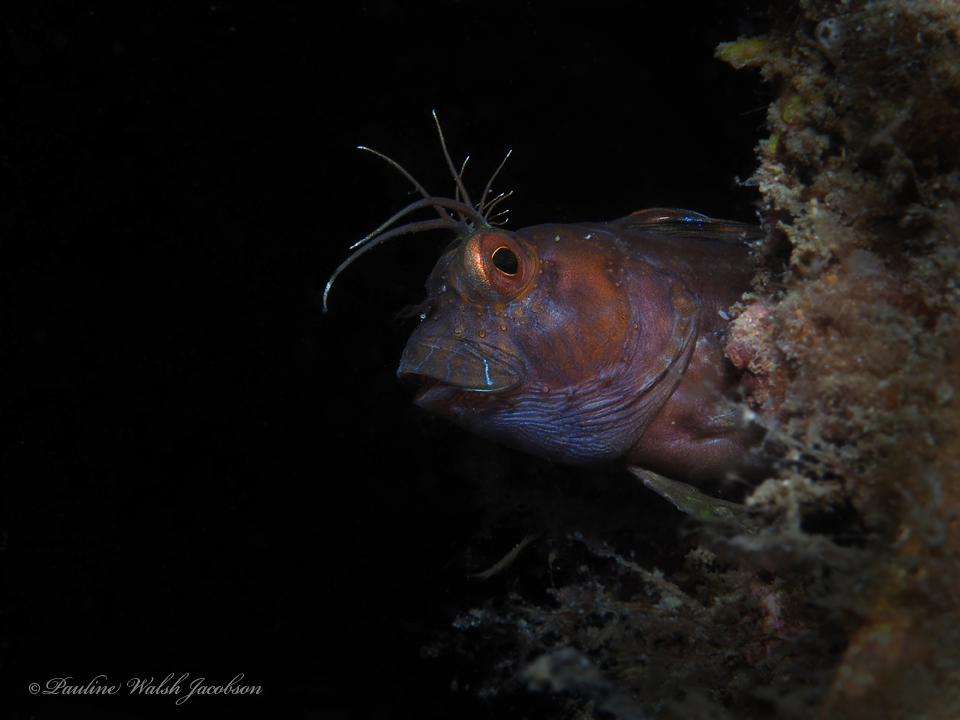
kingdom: Animalia
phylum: Chordata
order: Perciformes
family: Blenniidae
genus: Parablennius
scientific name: Parablennius marmoreus
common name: Seaweed blenny
